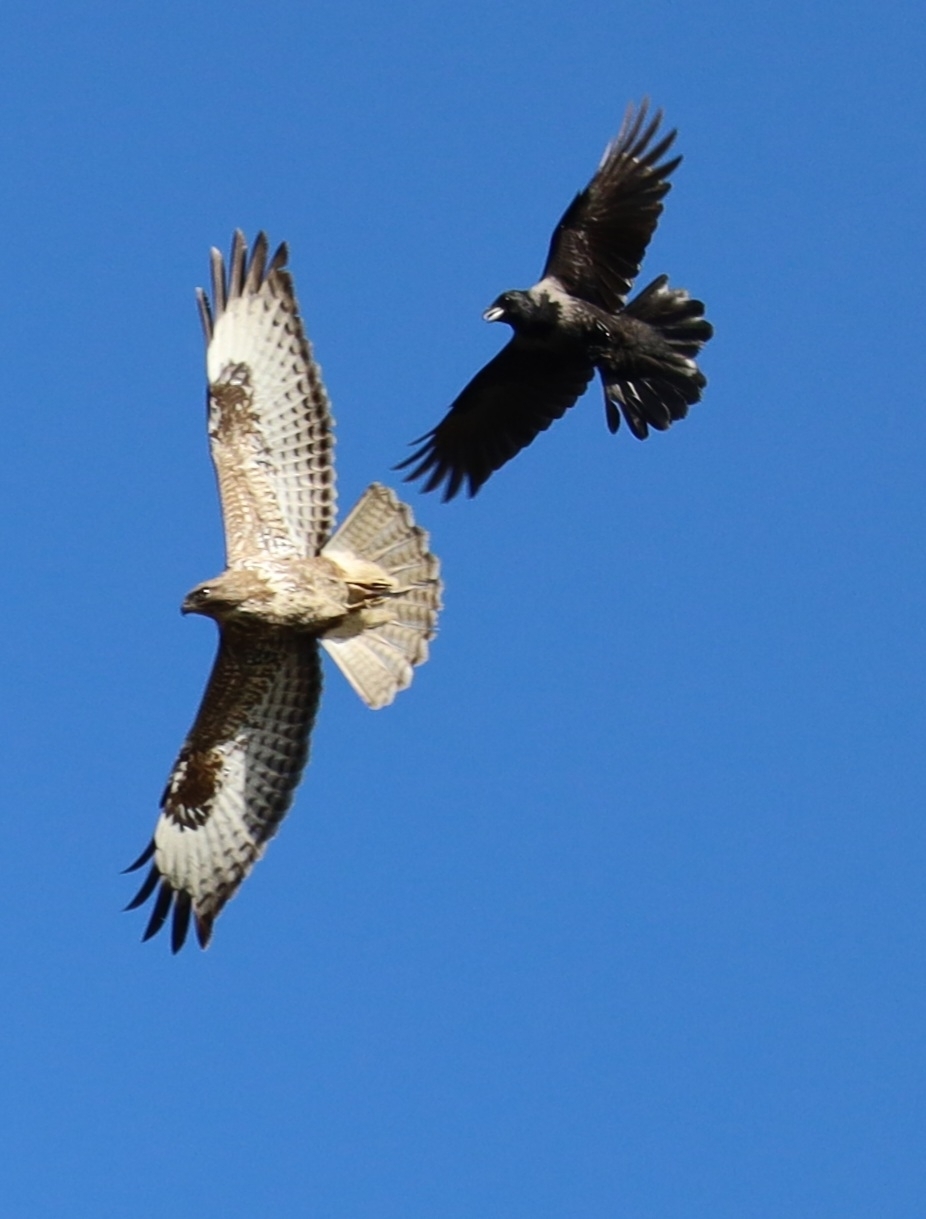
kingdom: Animalia
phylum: Chordata
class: Aves
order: Accipitriformes
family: Accipitridae
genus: Buteo
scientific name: Buteo buteo
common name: Common buzzard
